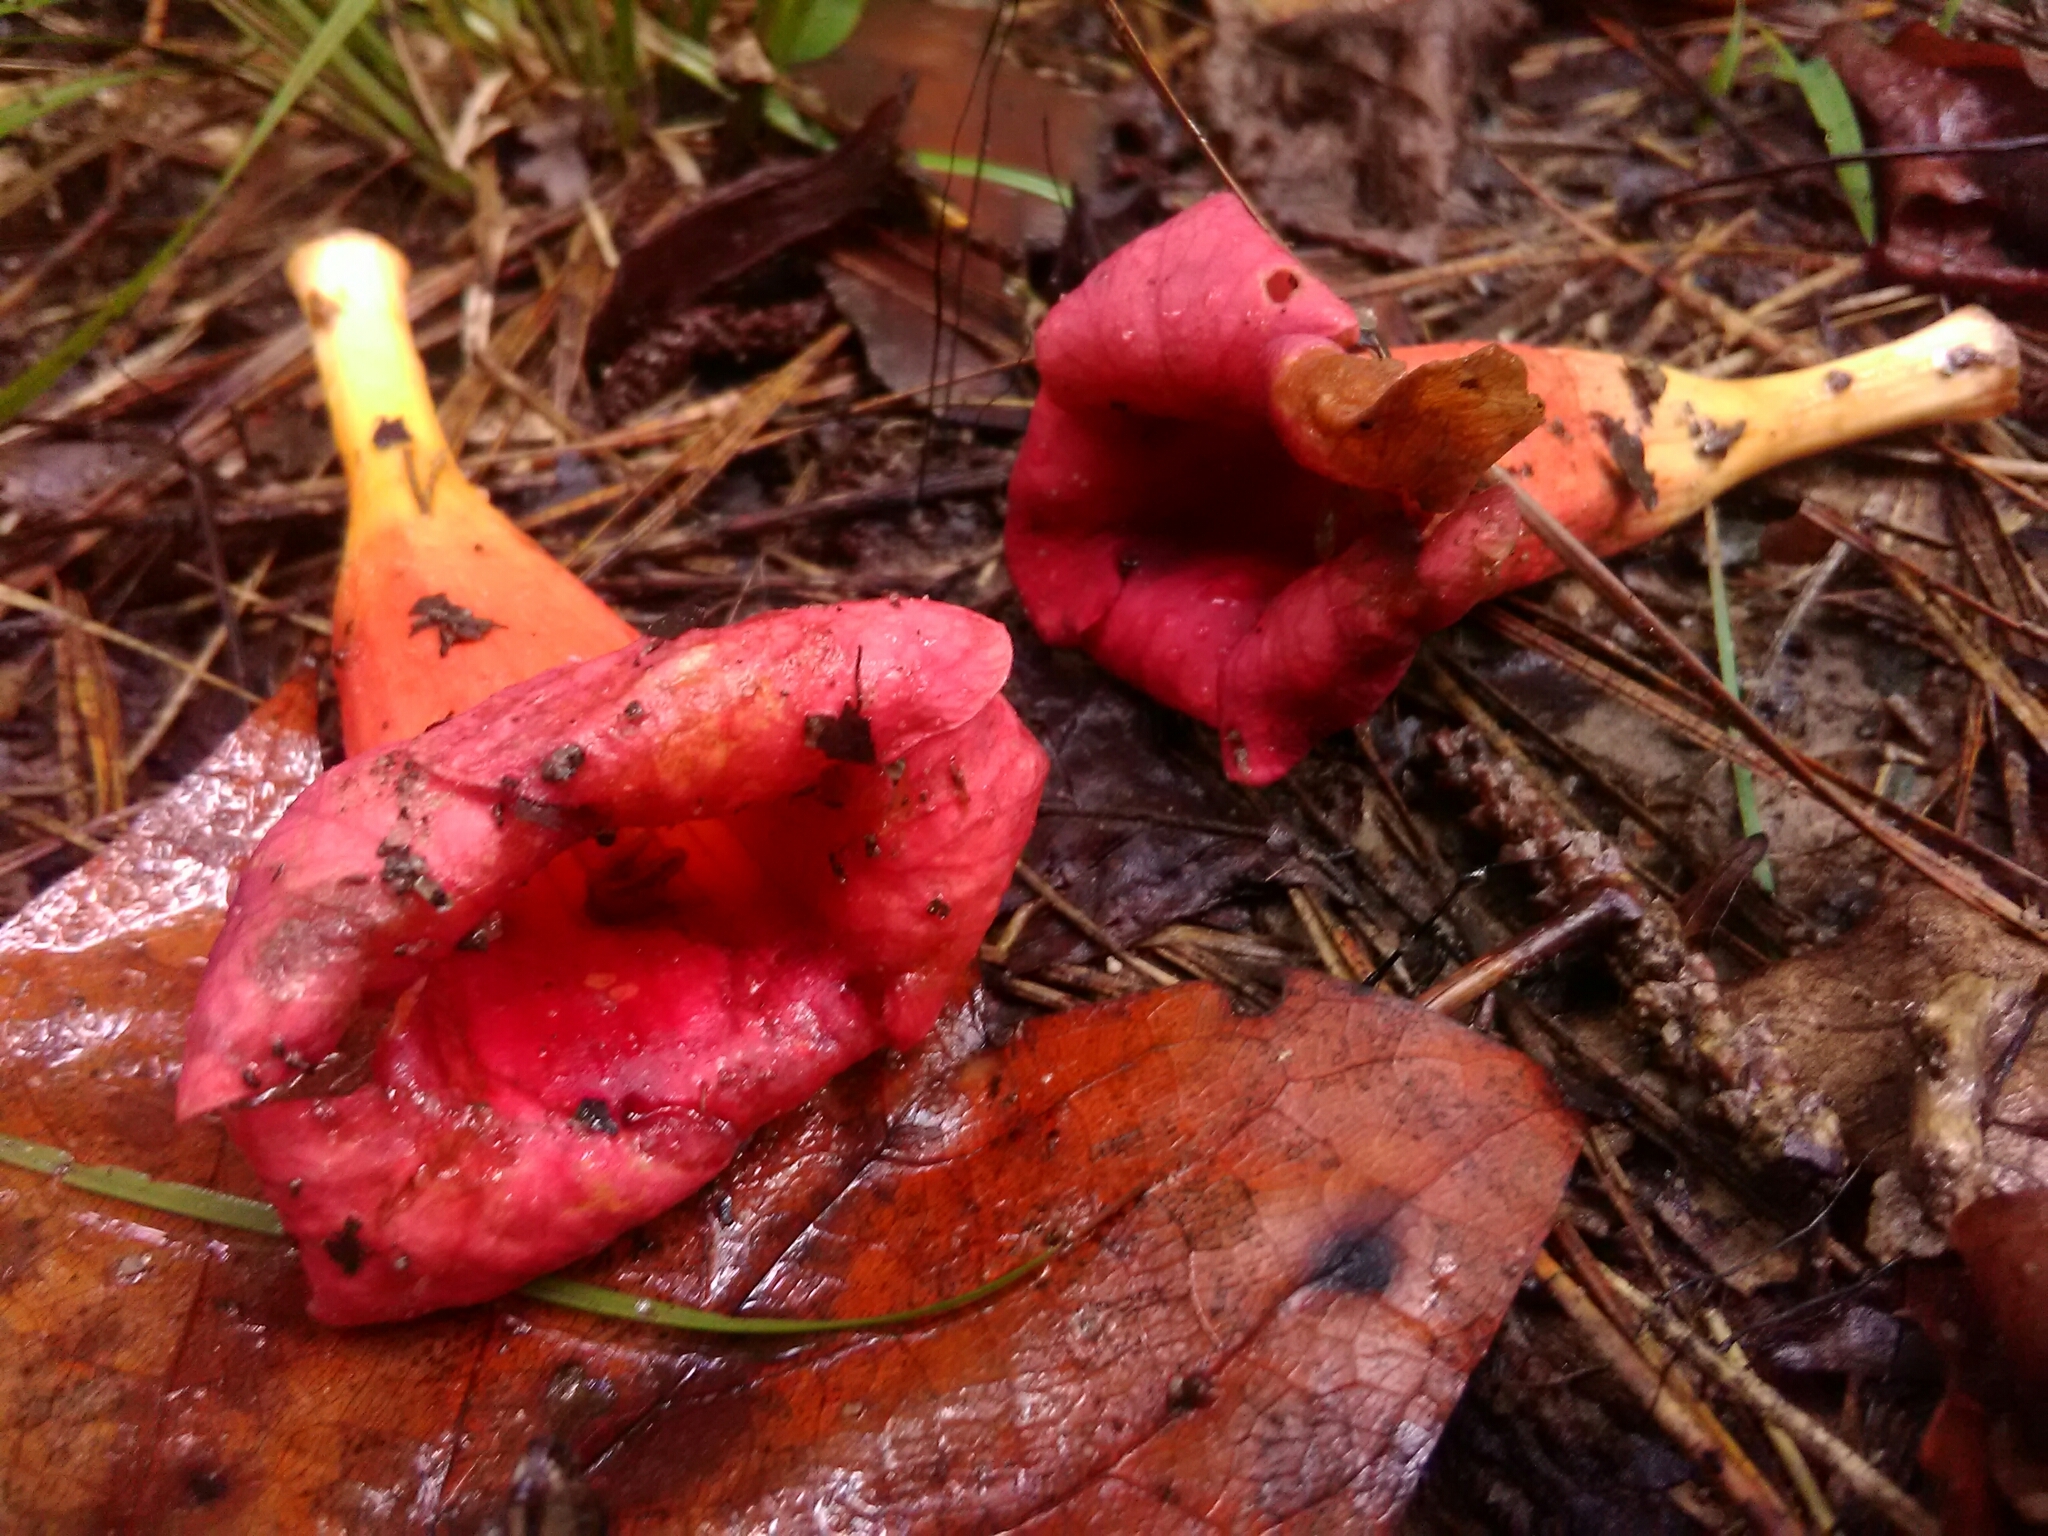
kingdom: Plantae
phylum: Tracheophyta
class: Magnoliopsida
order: Lamiales
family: Bignoniaceae
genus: Campsis
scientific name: Campsis radicans
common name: Trumpet-creeper
